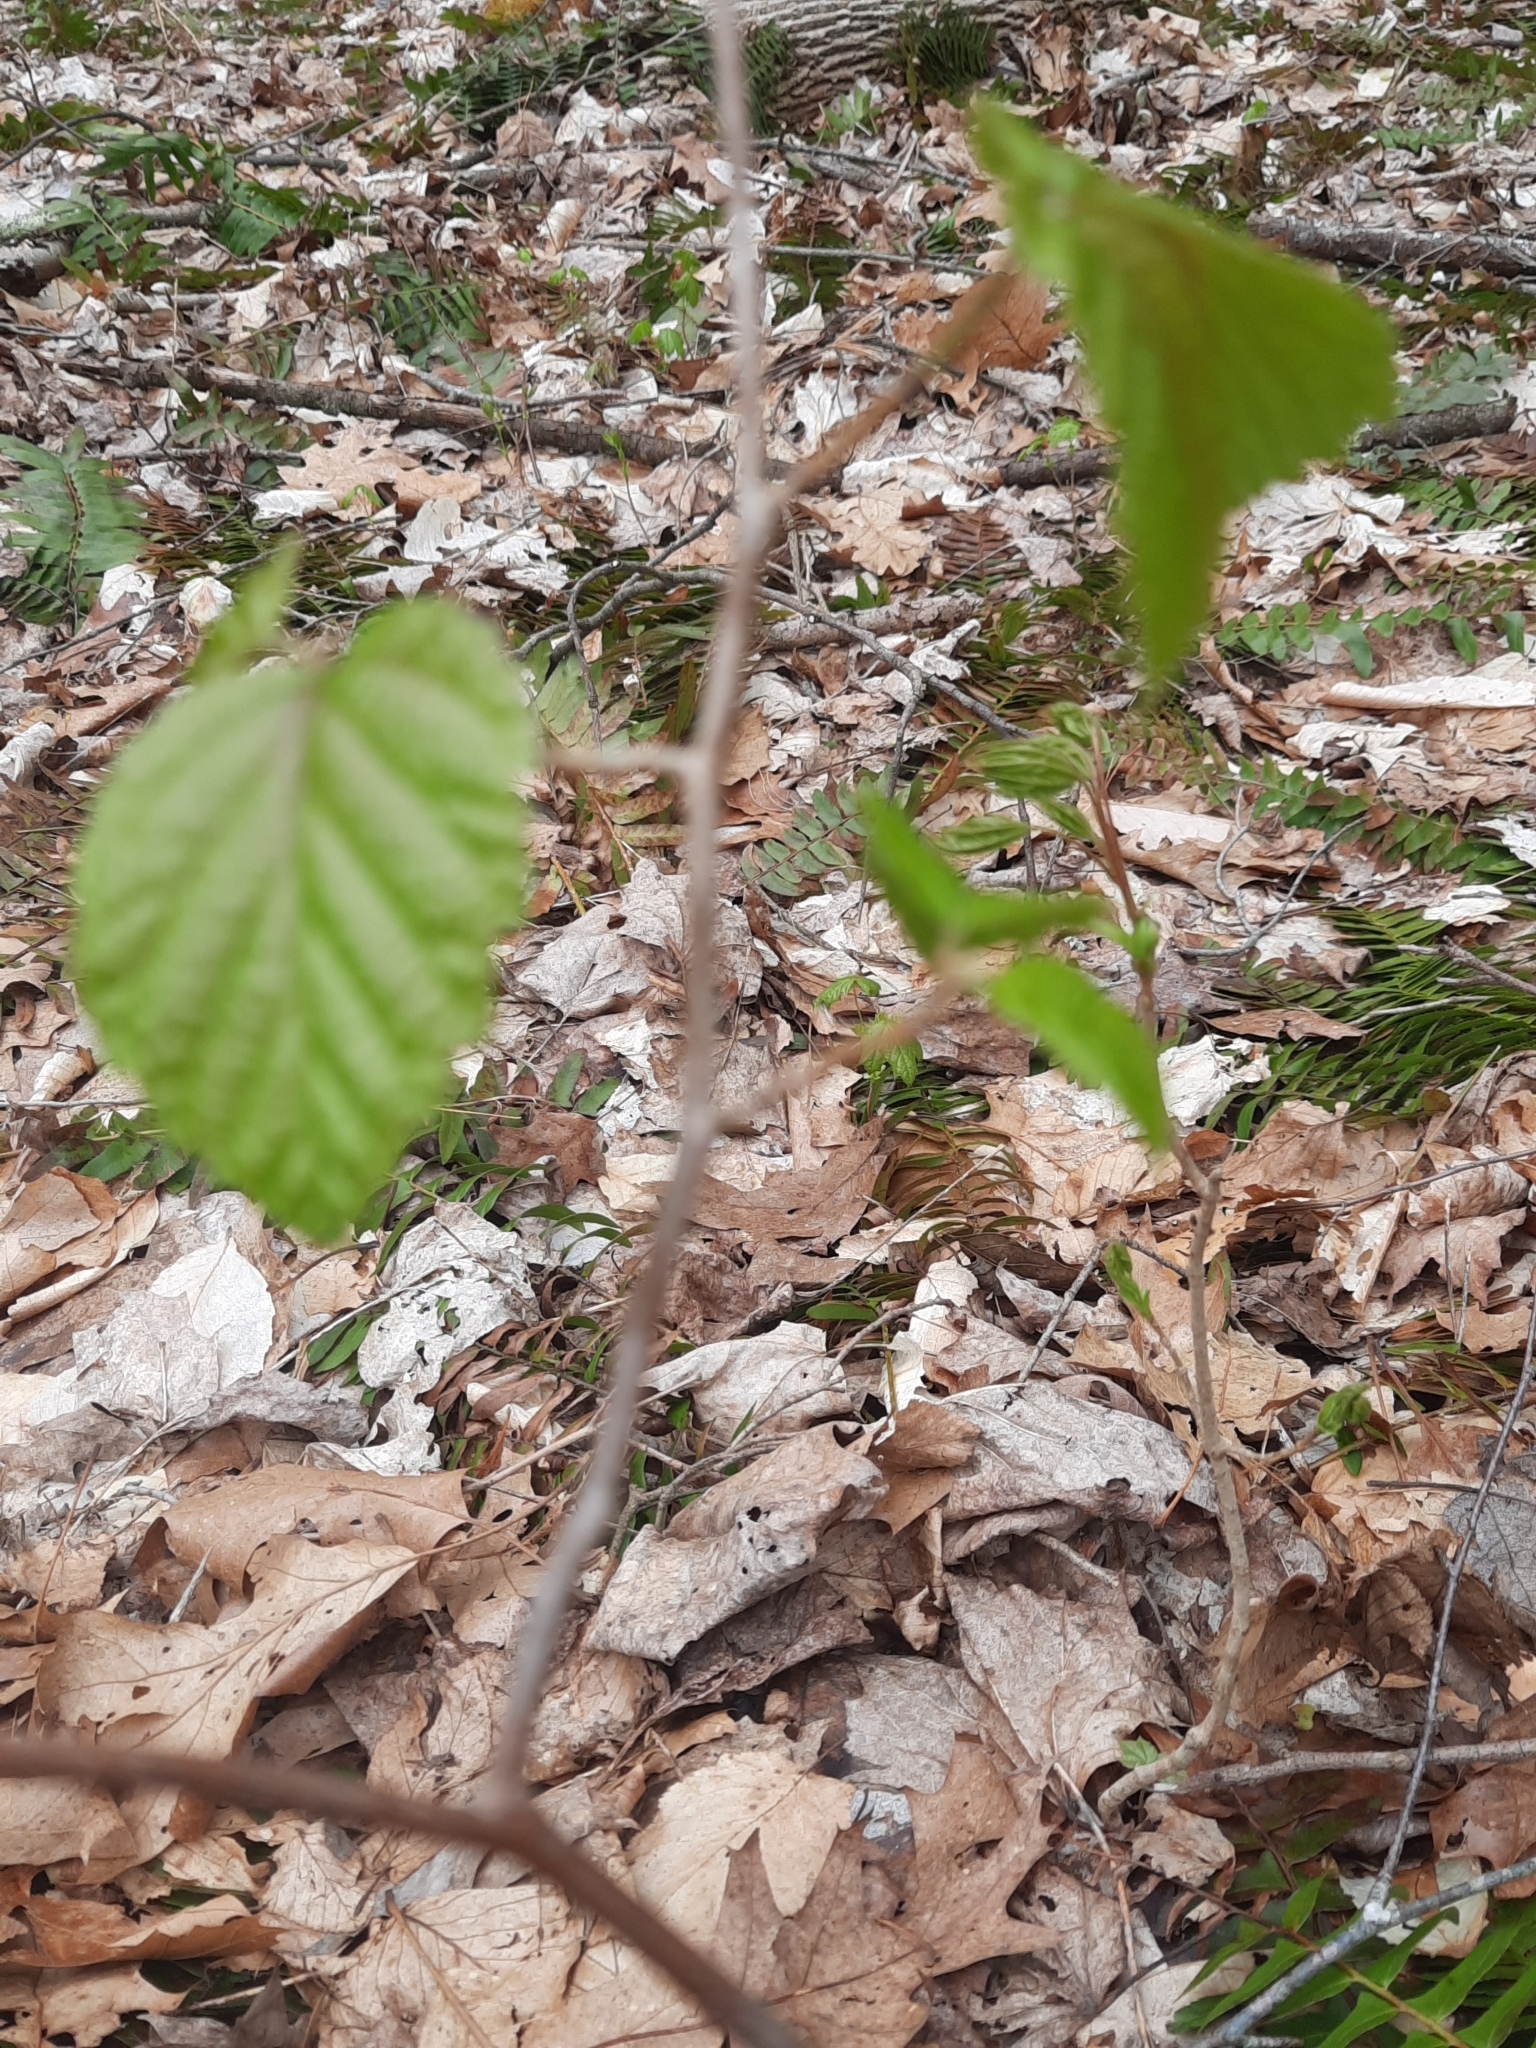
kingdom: Plantae
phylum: Tracheophyta
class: Magnoliopsida
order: Saxifragales
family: Hamamelidaceae
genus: Hamamelis
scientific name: Hamamelis virginiana
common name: Witch-hazel
